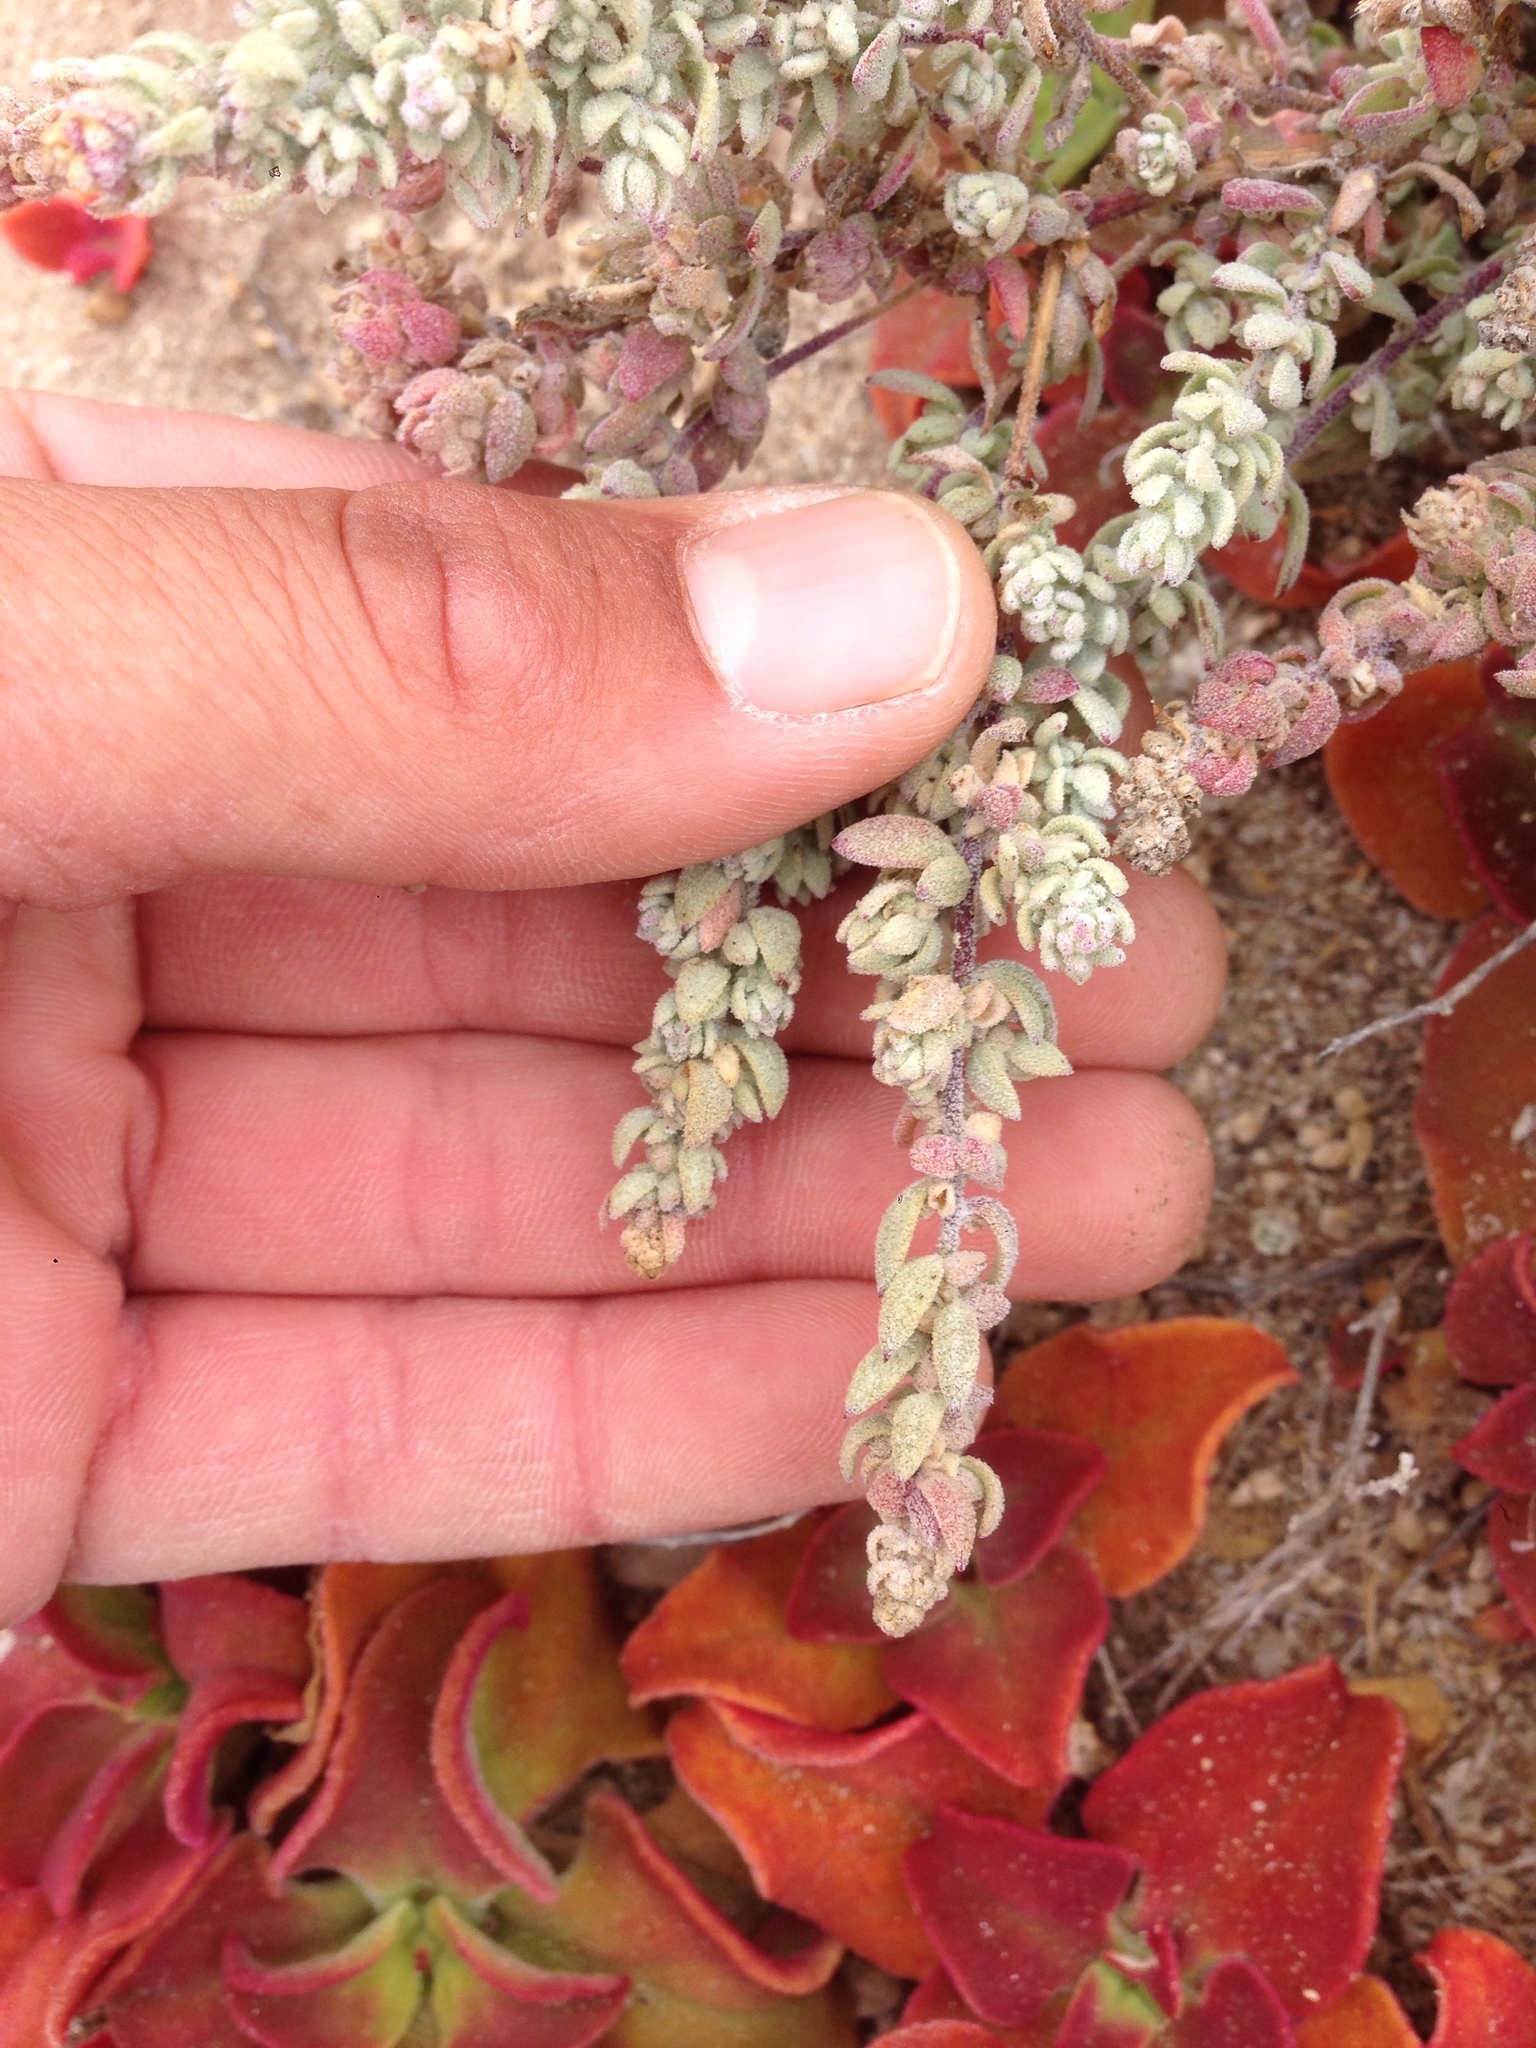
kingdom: Plantae
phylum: Tracheophyta
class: Magnoliopsida
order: Caryophyllales
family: Amaranthaceae
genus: Extriplex
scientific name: Extriplex californica
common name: California saltbush
